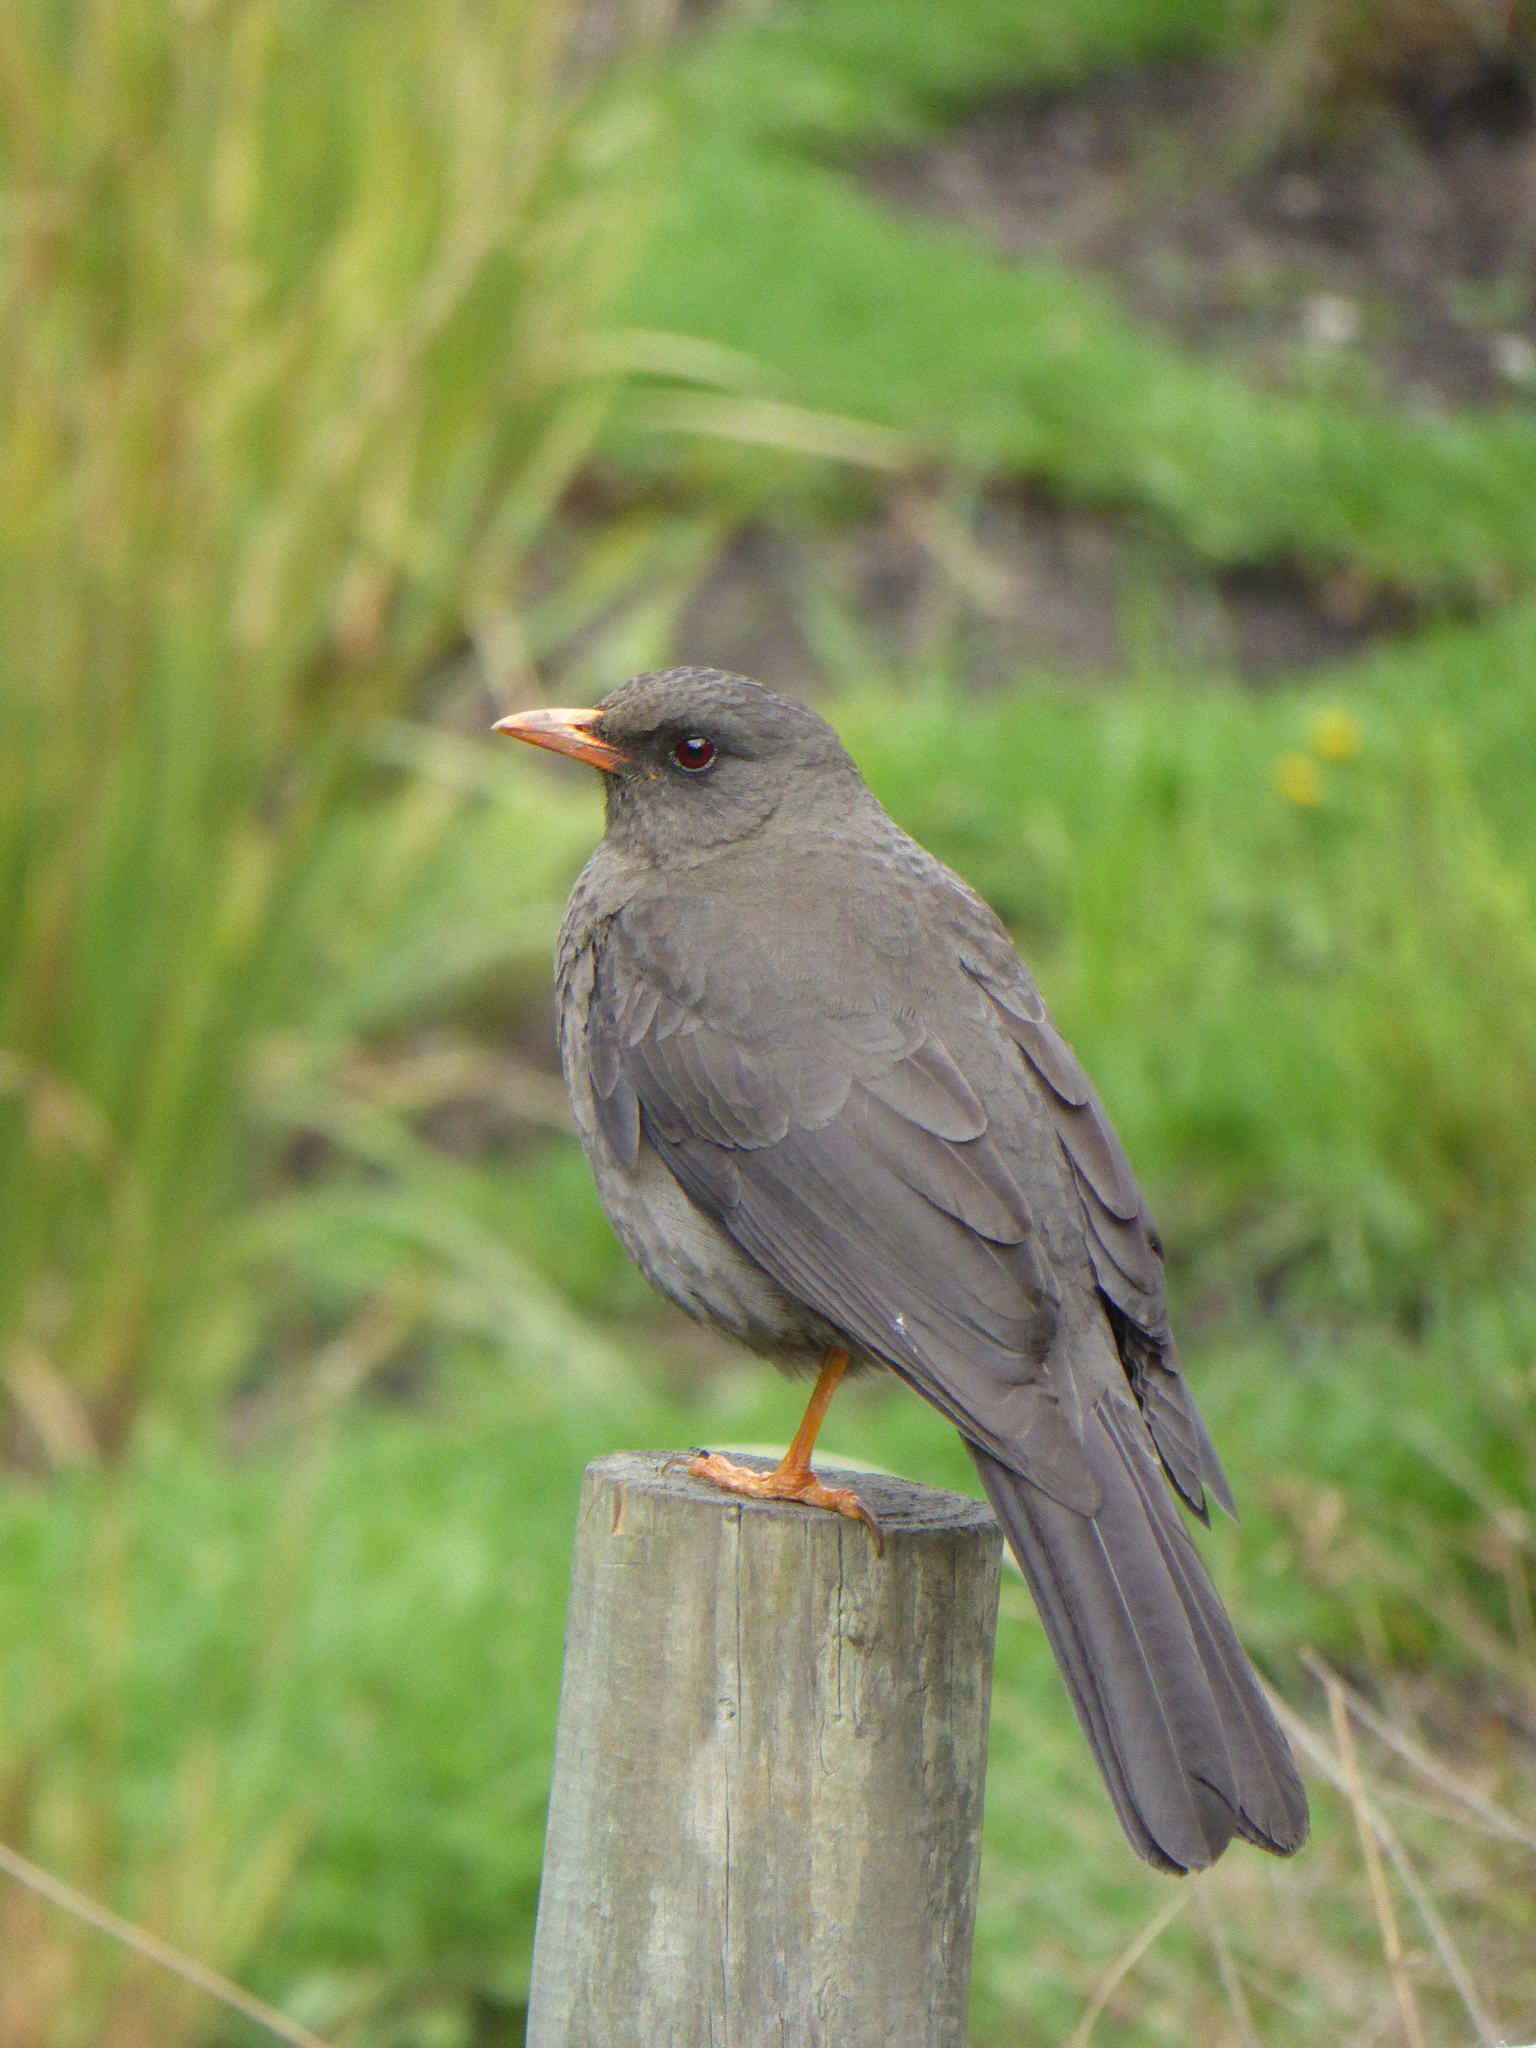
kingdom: Animalia
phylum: Chordata
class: Aves
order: Passeriformes
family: Turdidae
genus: Turdus
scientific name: Turdus fuscater
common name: Great thrush
